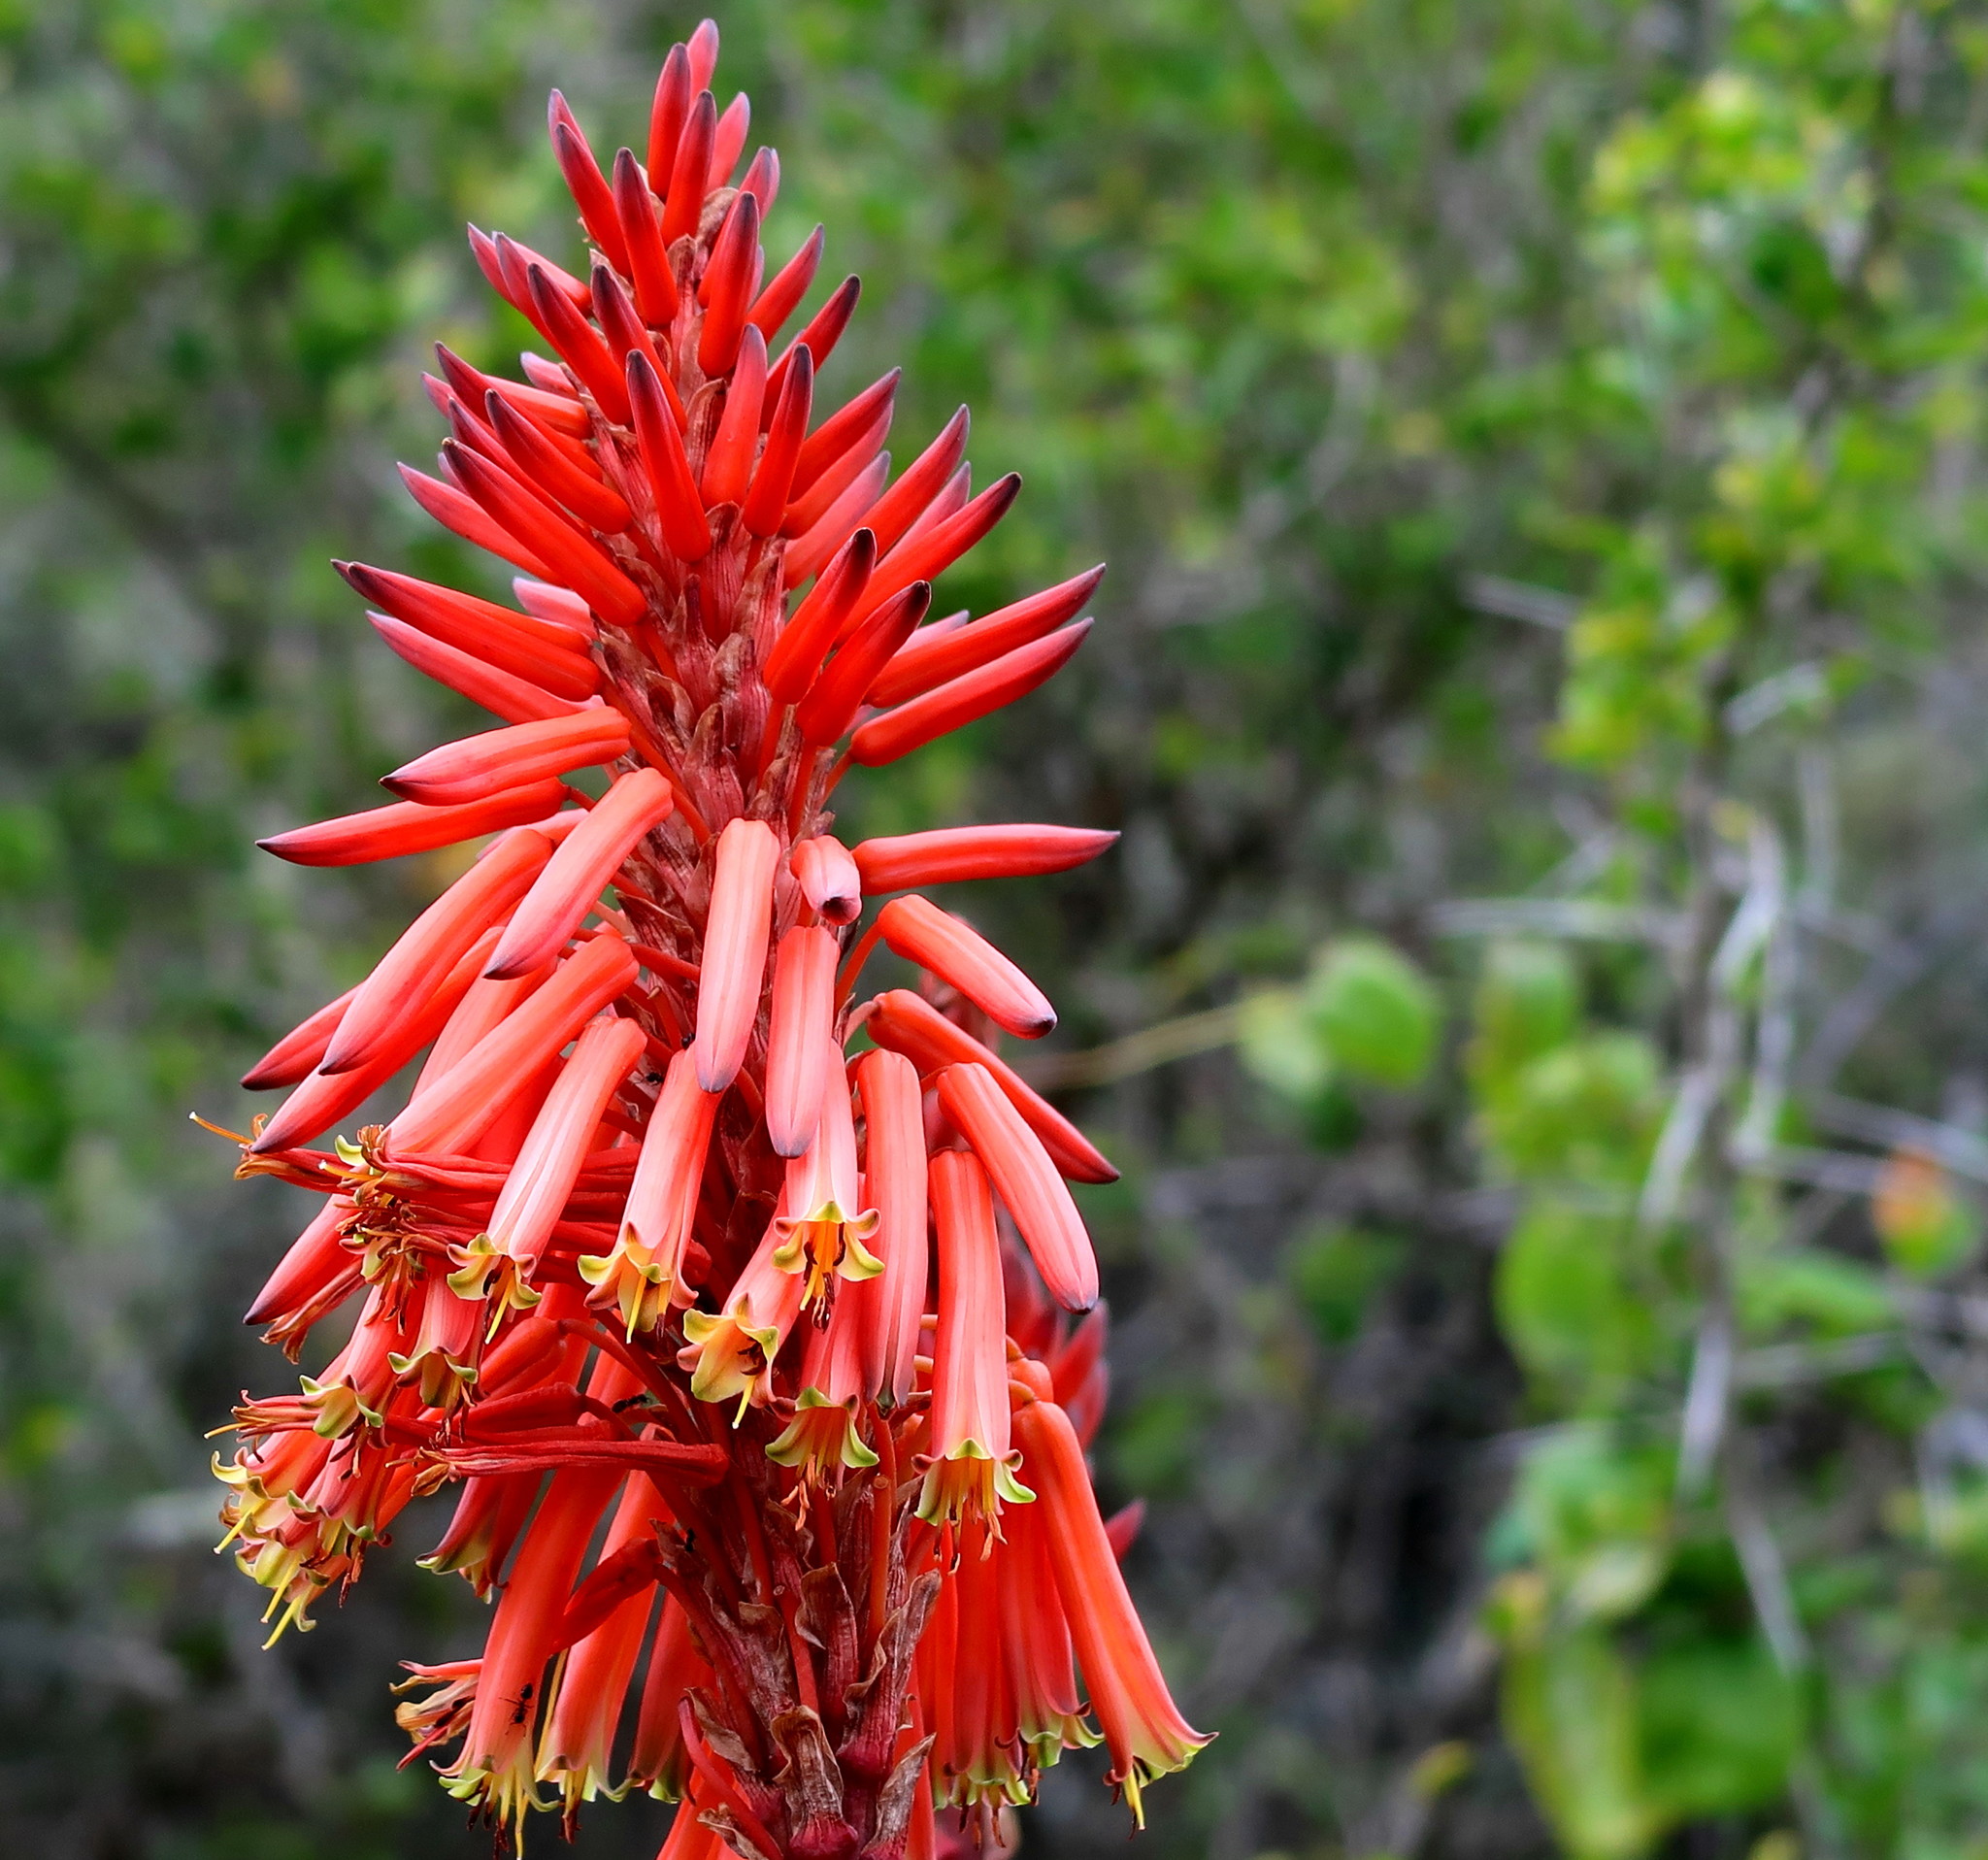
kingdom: Plantae
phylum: Tracheophyta
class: Liliopsida
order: Asparagales
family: Asphodelaceae
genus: Aloe
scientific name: Aloe arborescens
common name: Candelabra aloe
